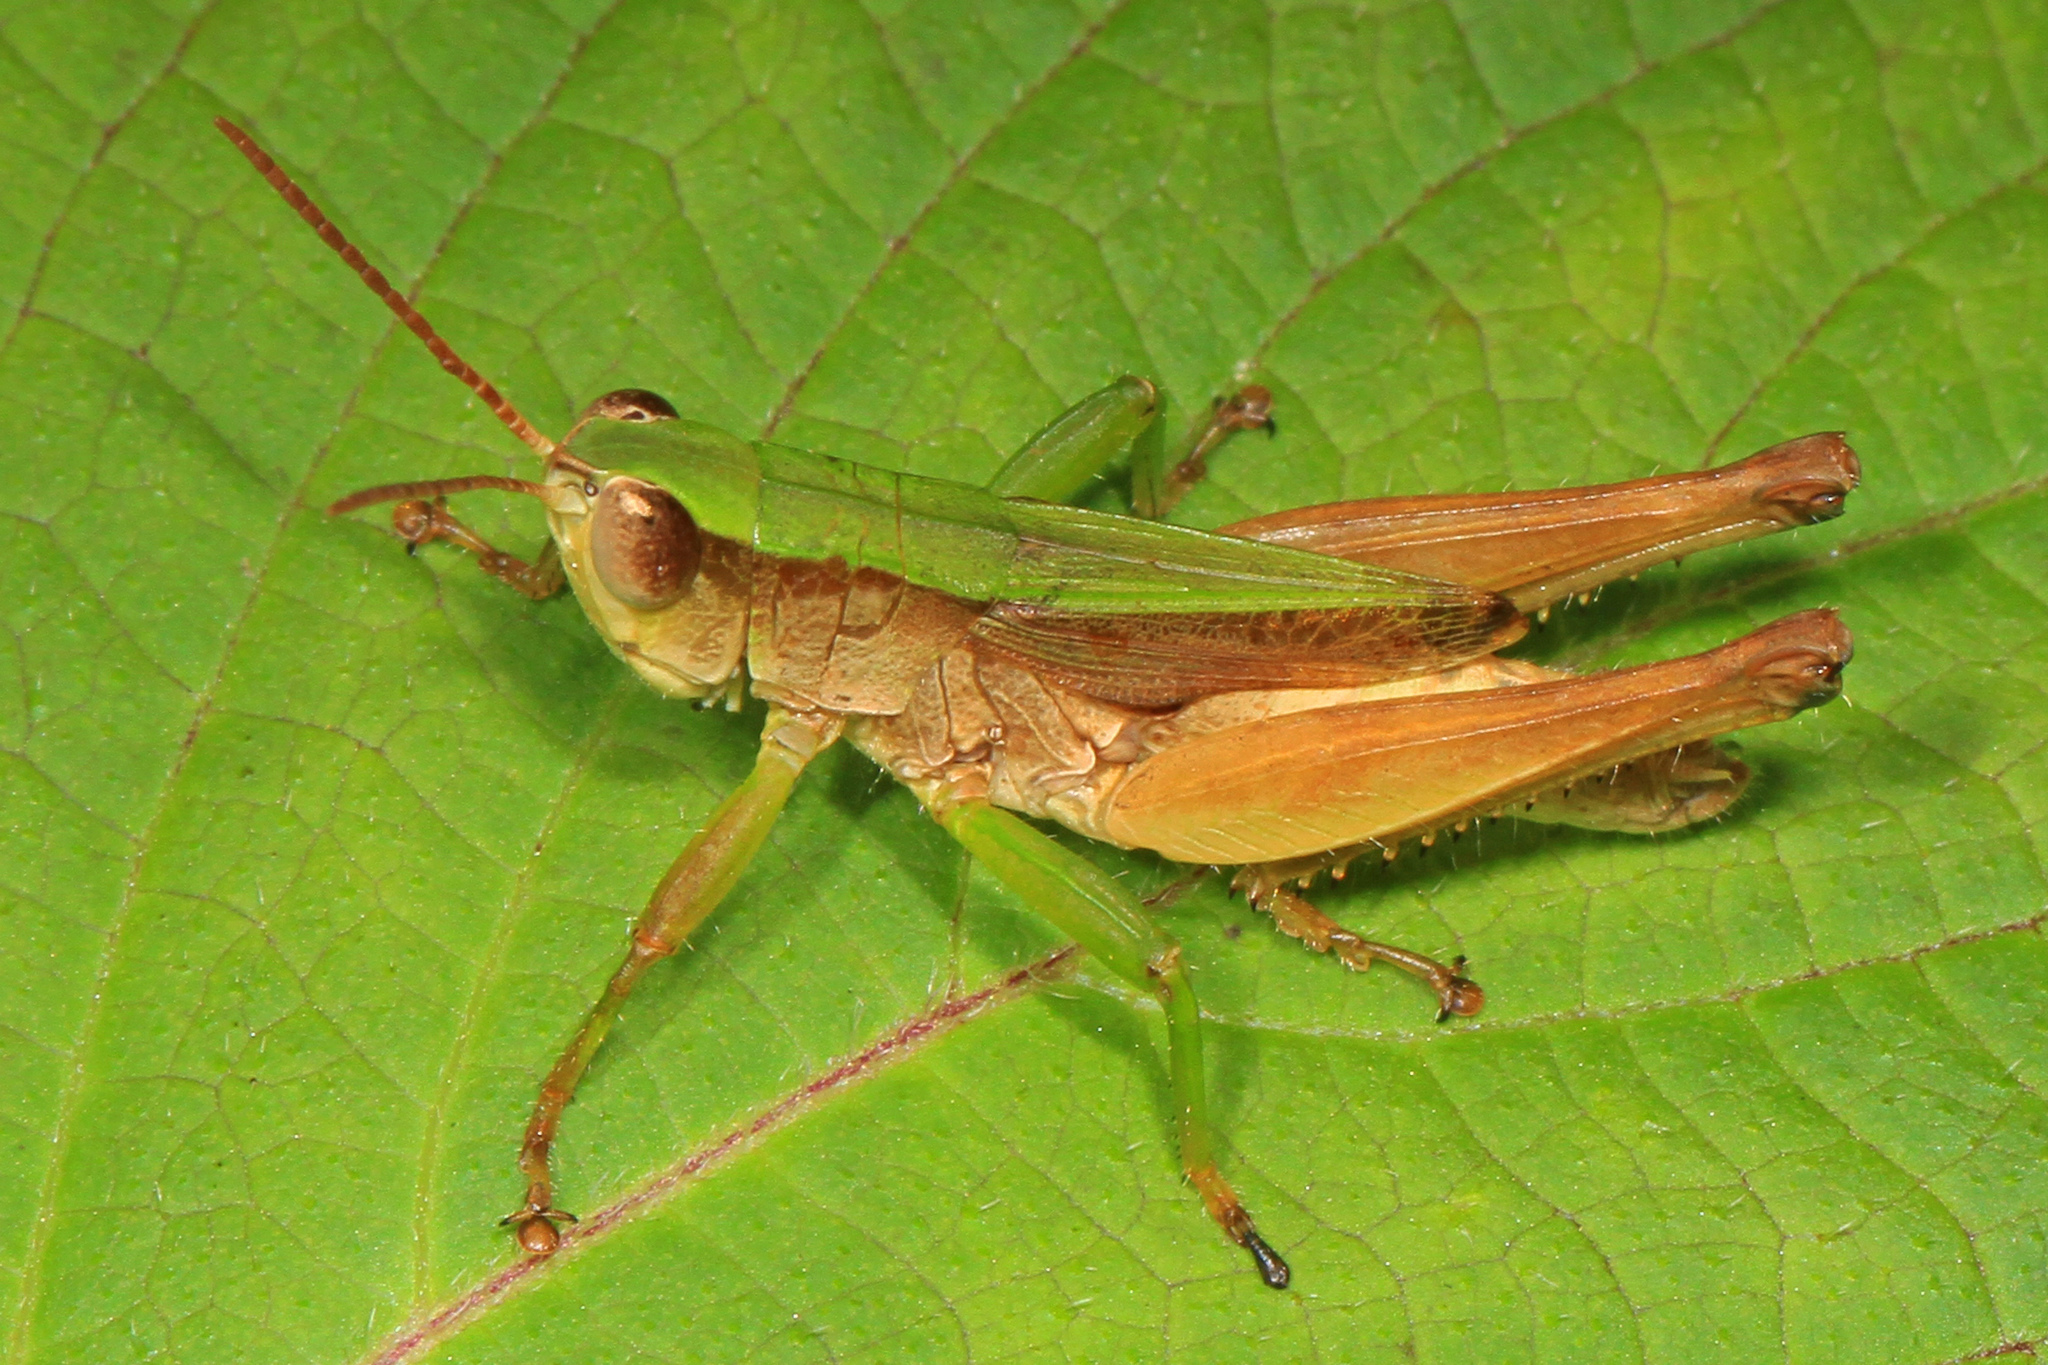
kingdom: Animalia
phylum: Arthropoda
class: Insecta
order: Orthoptera
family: Acrididae
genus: Dichromorpha
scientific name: Dichromorpha viridis
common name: Short-winged green grasshopper
